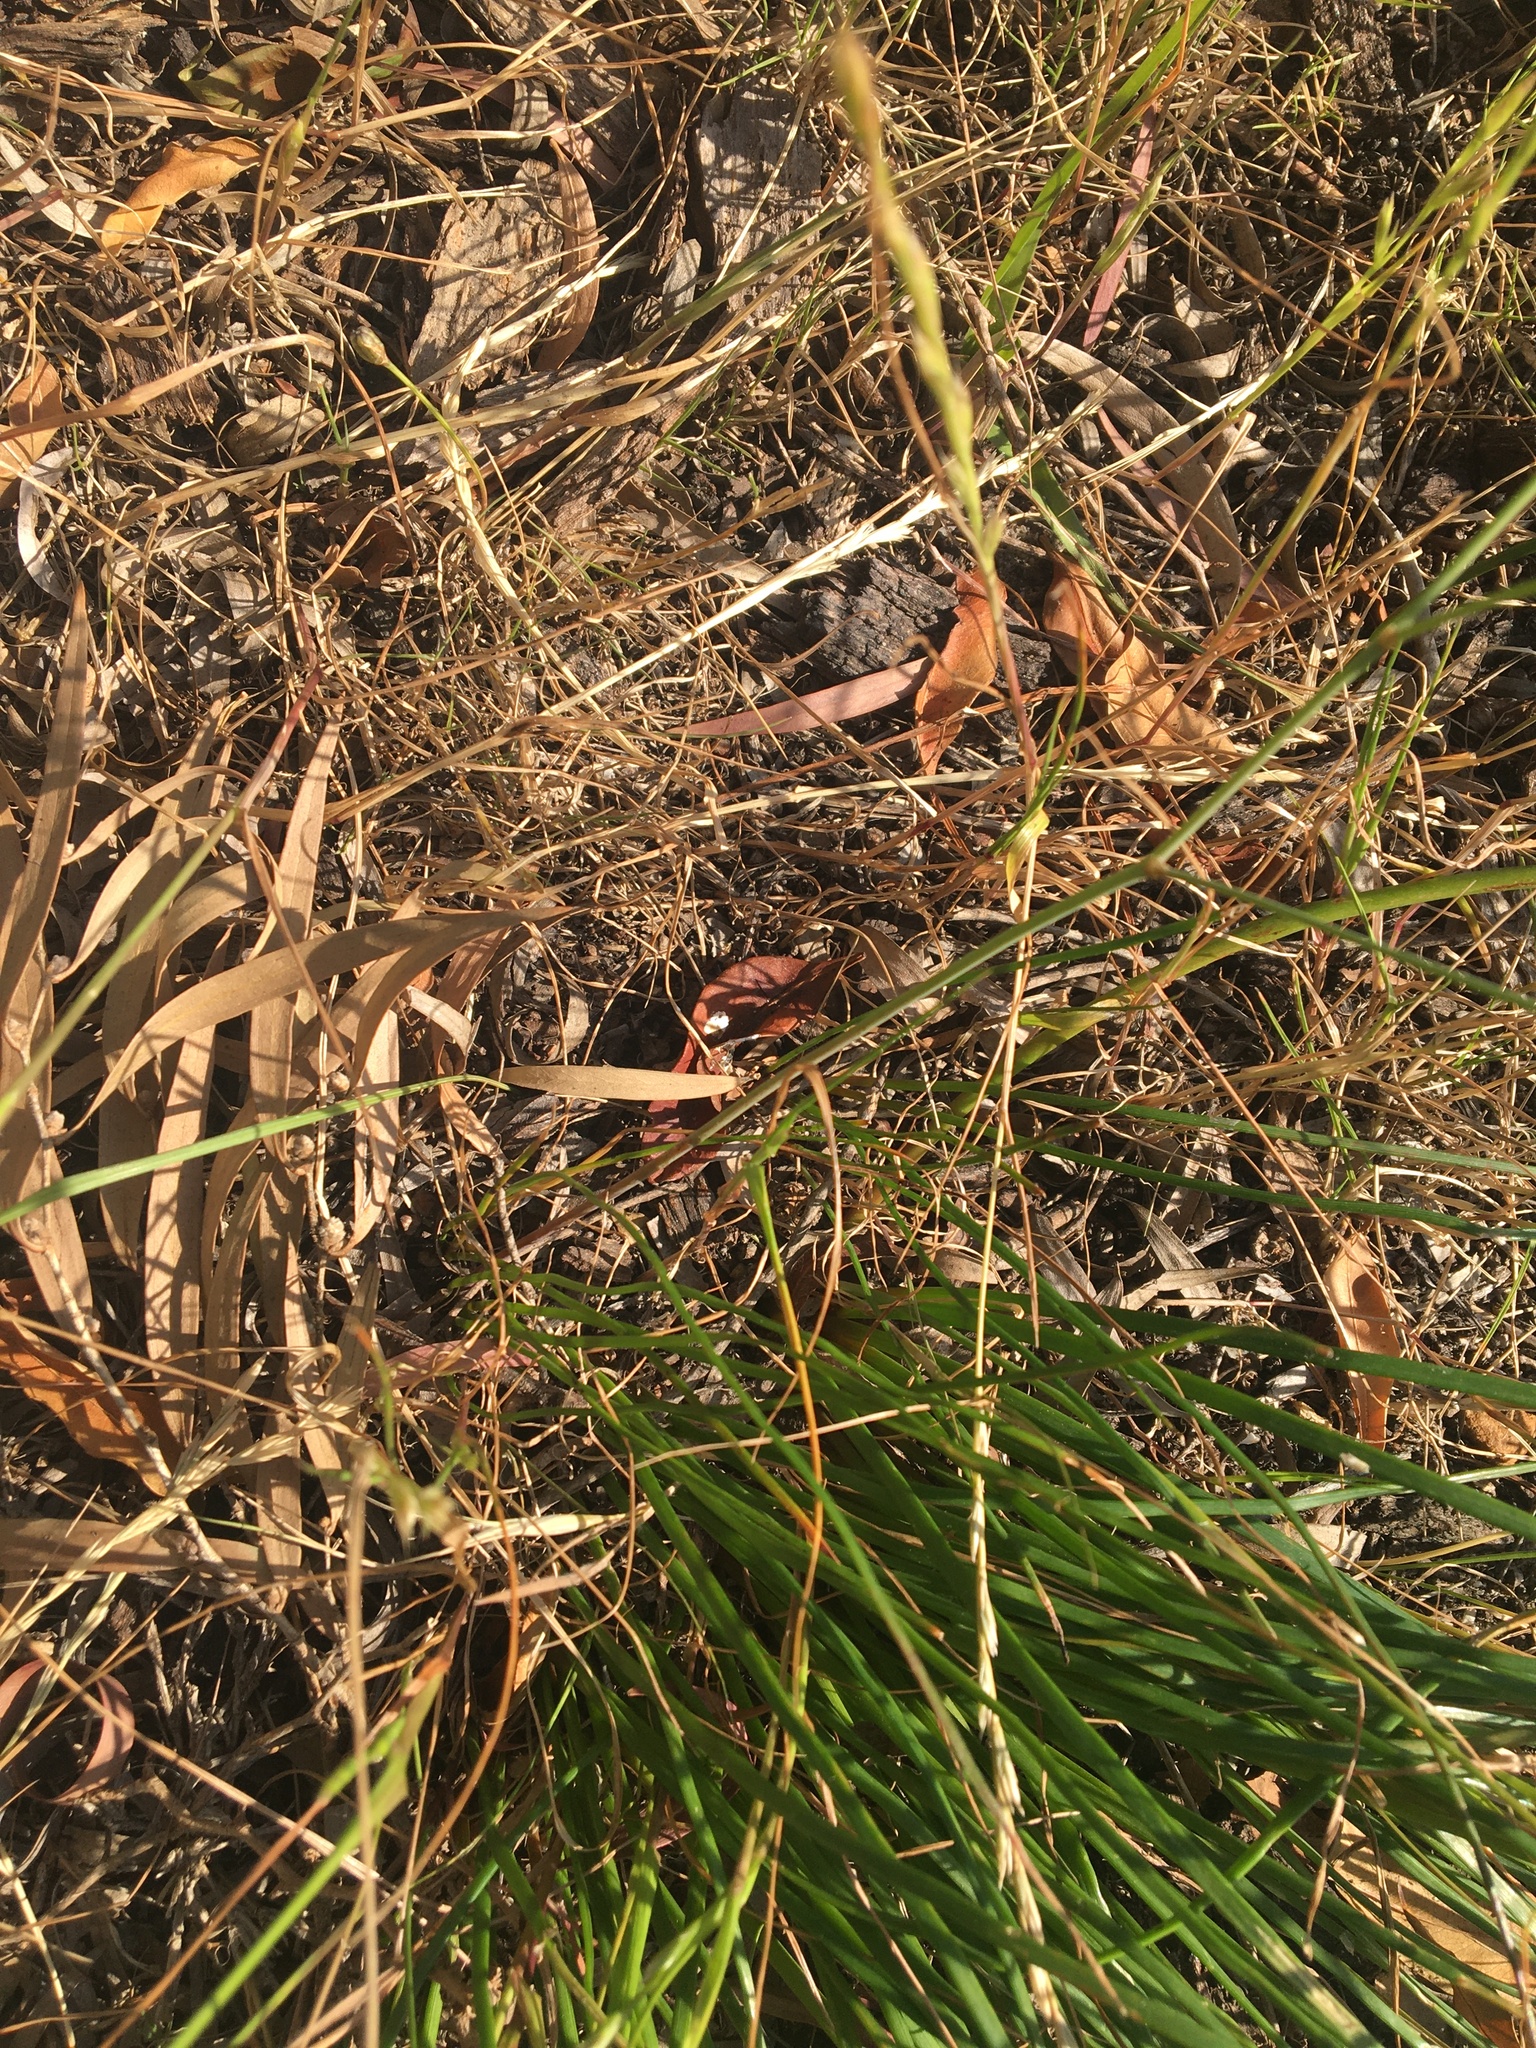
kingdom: Plantae
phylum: Tracheophyta
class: Liliopsida
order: Asparagales
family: Asphodelaceae
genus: Trachyandra
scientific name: Trachyandra revoluta
